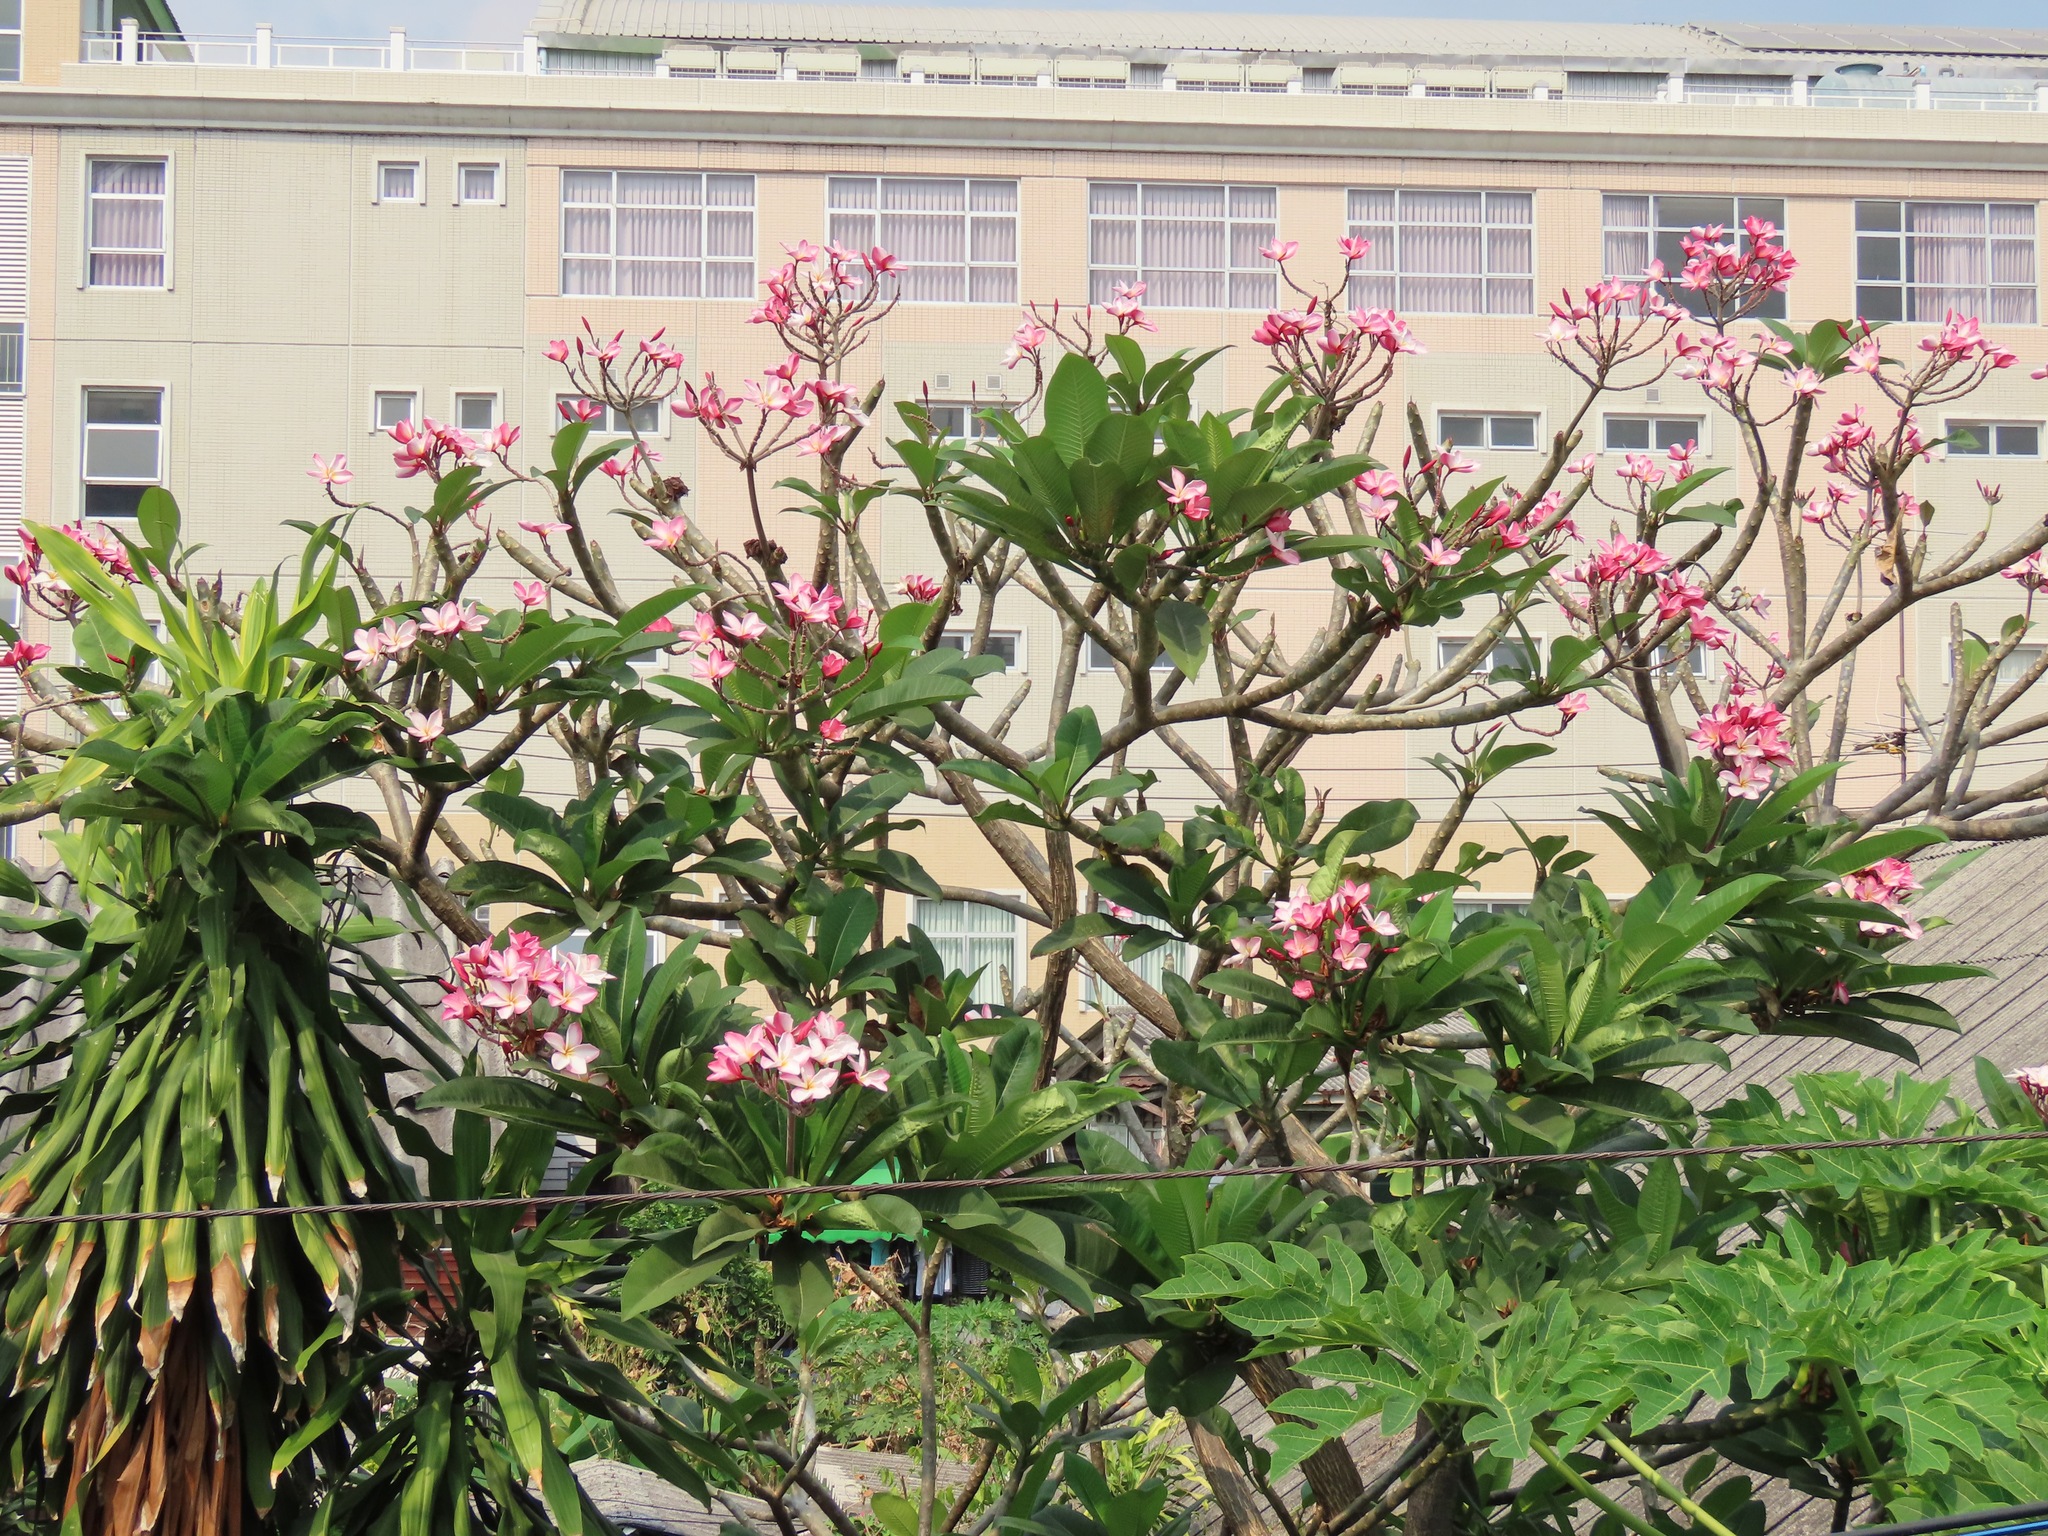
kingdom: Plantae
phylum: Tracheophyta
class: Magnoliopsida
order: Gentianales
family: Apocynaceae
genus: Plumeria
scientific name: Plumeria rubra
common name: Pagoda-tree
